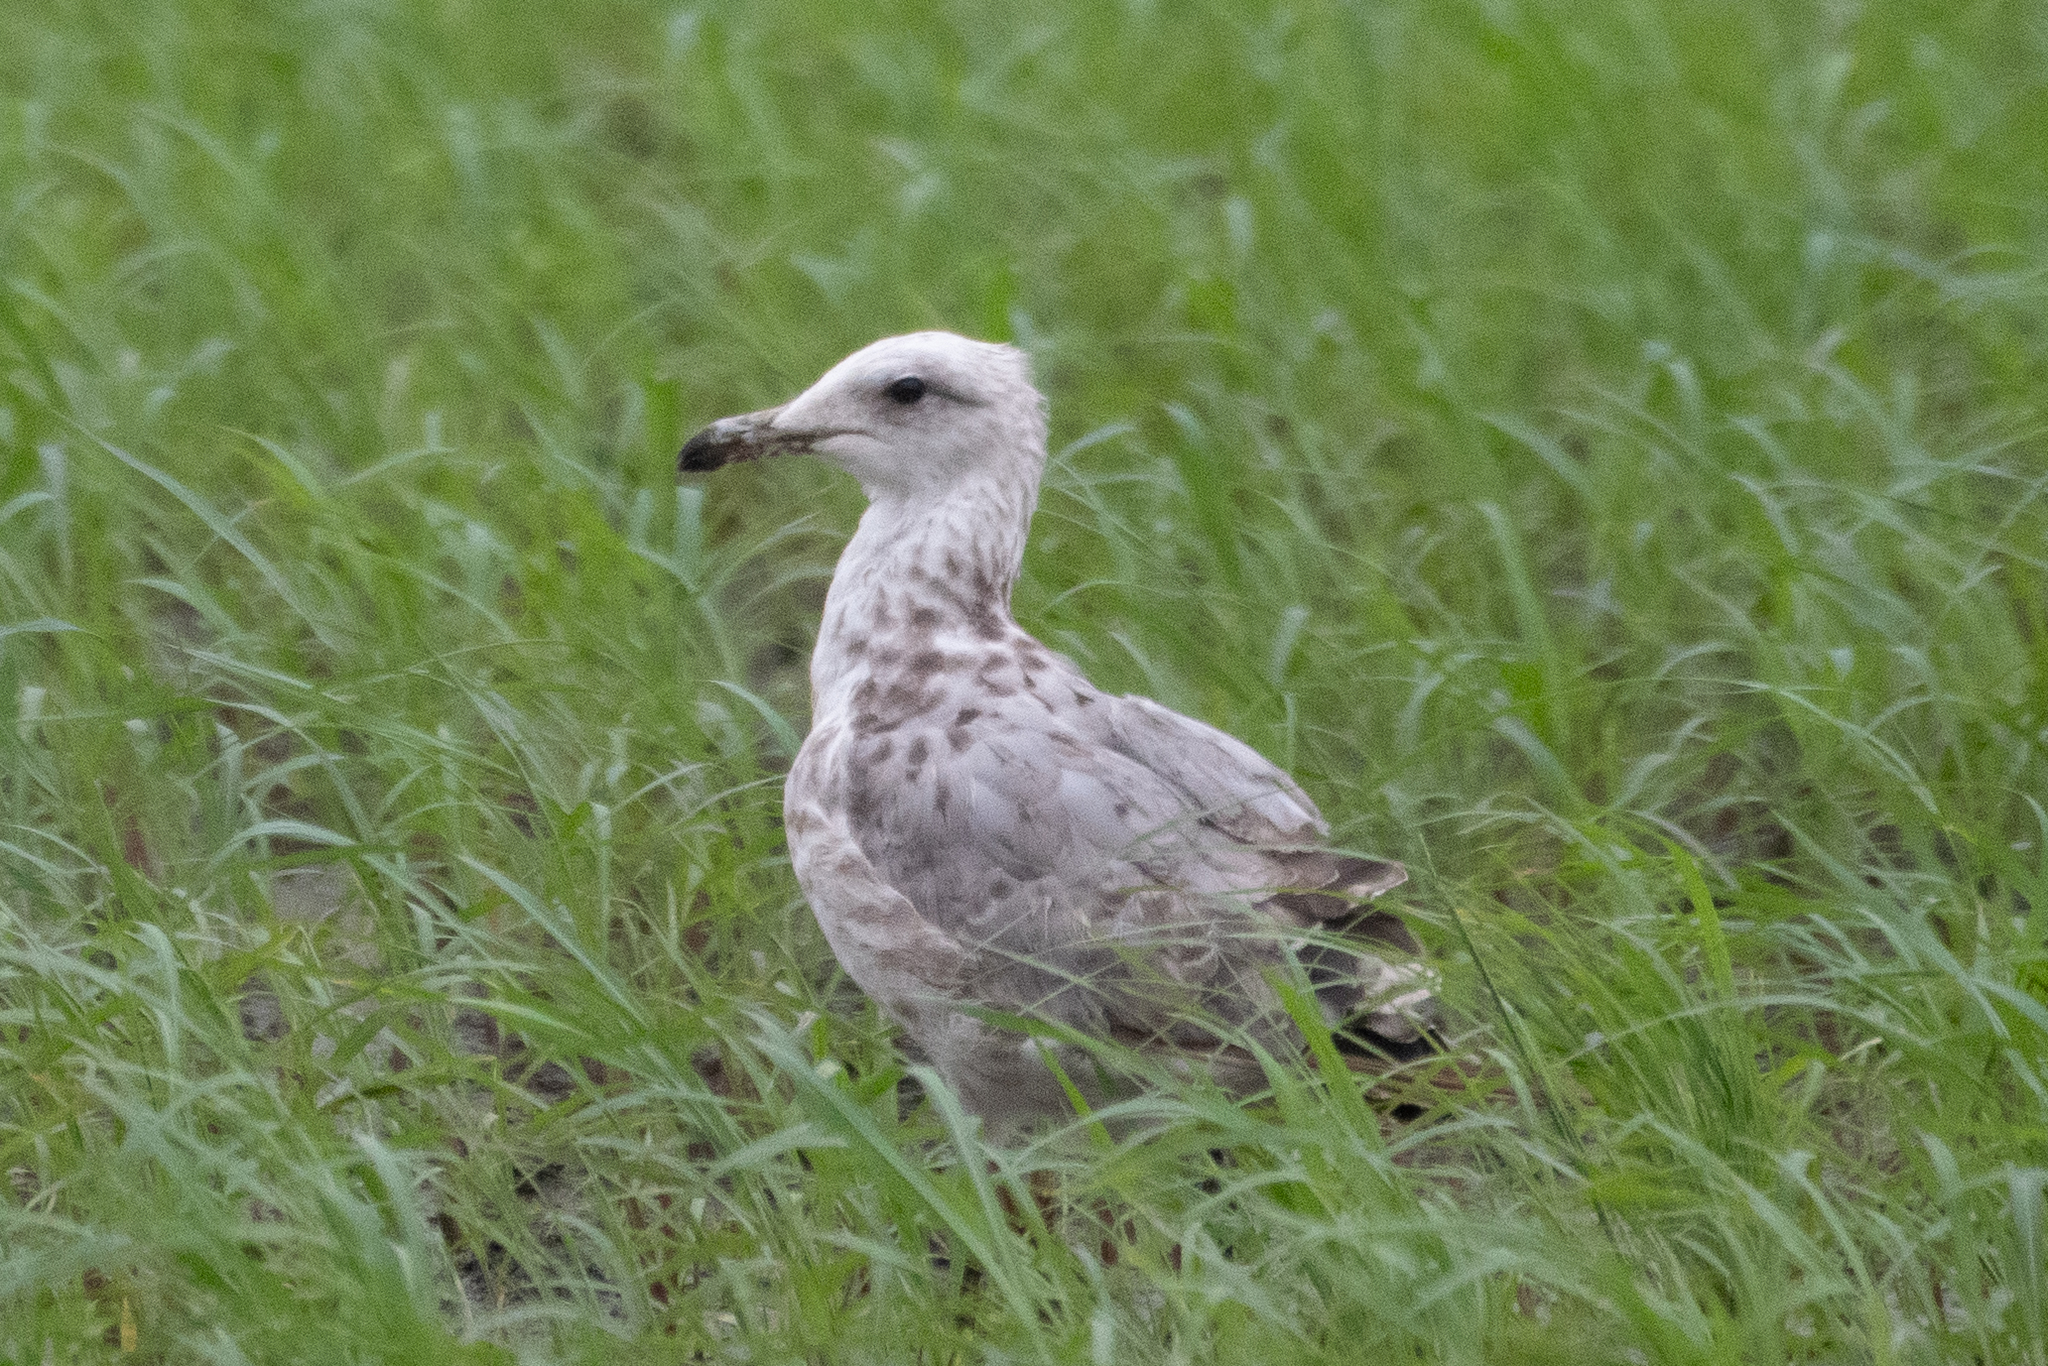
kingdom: Animalia
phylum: Chordata
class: Aves
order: Charadriiformes
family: Laridae
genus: Larus
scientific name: Larus californicus
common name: California gull
